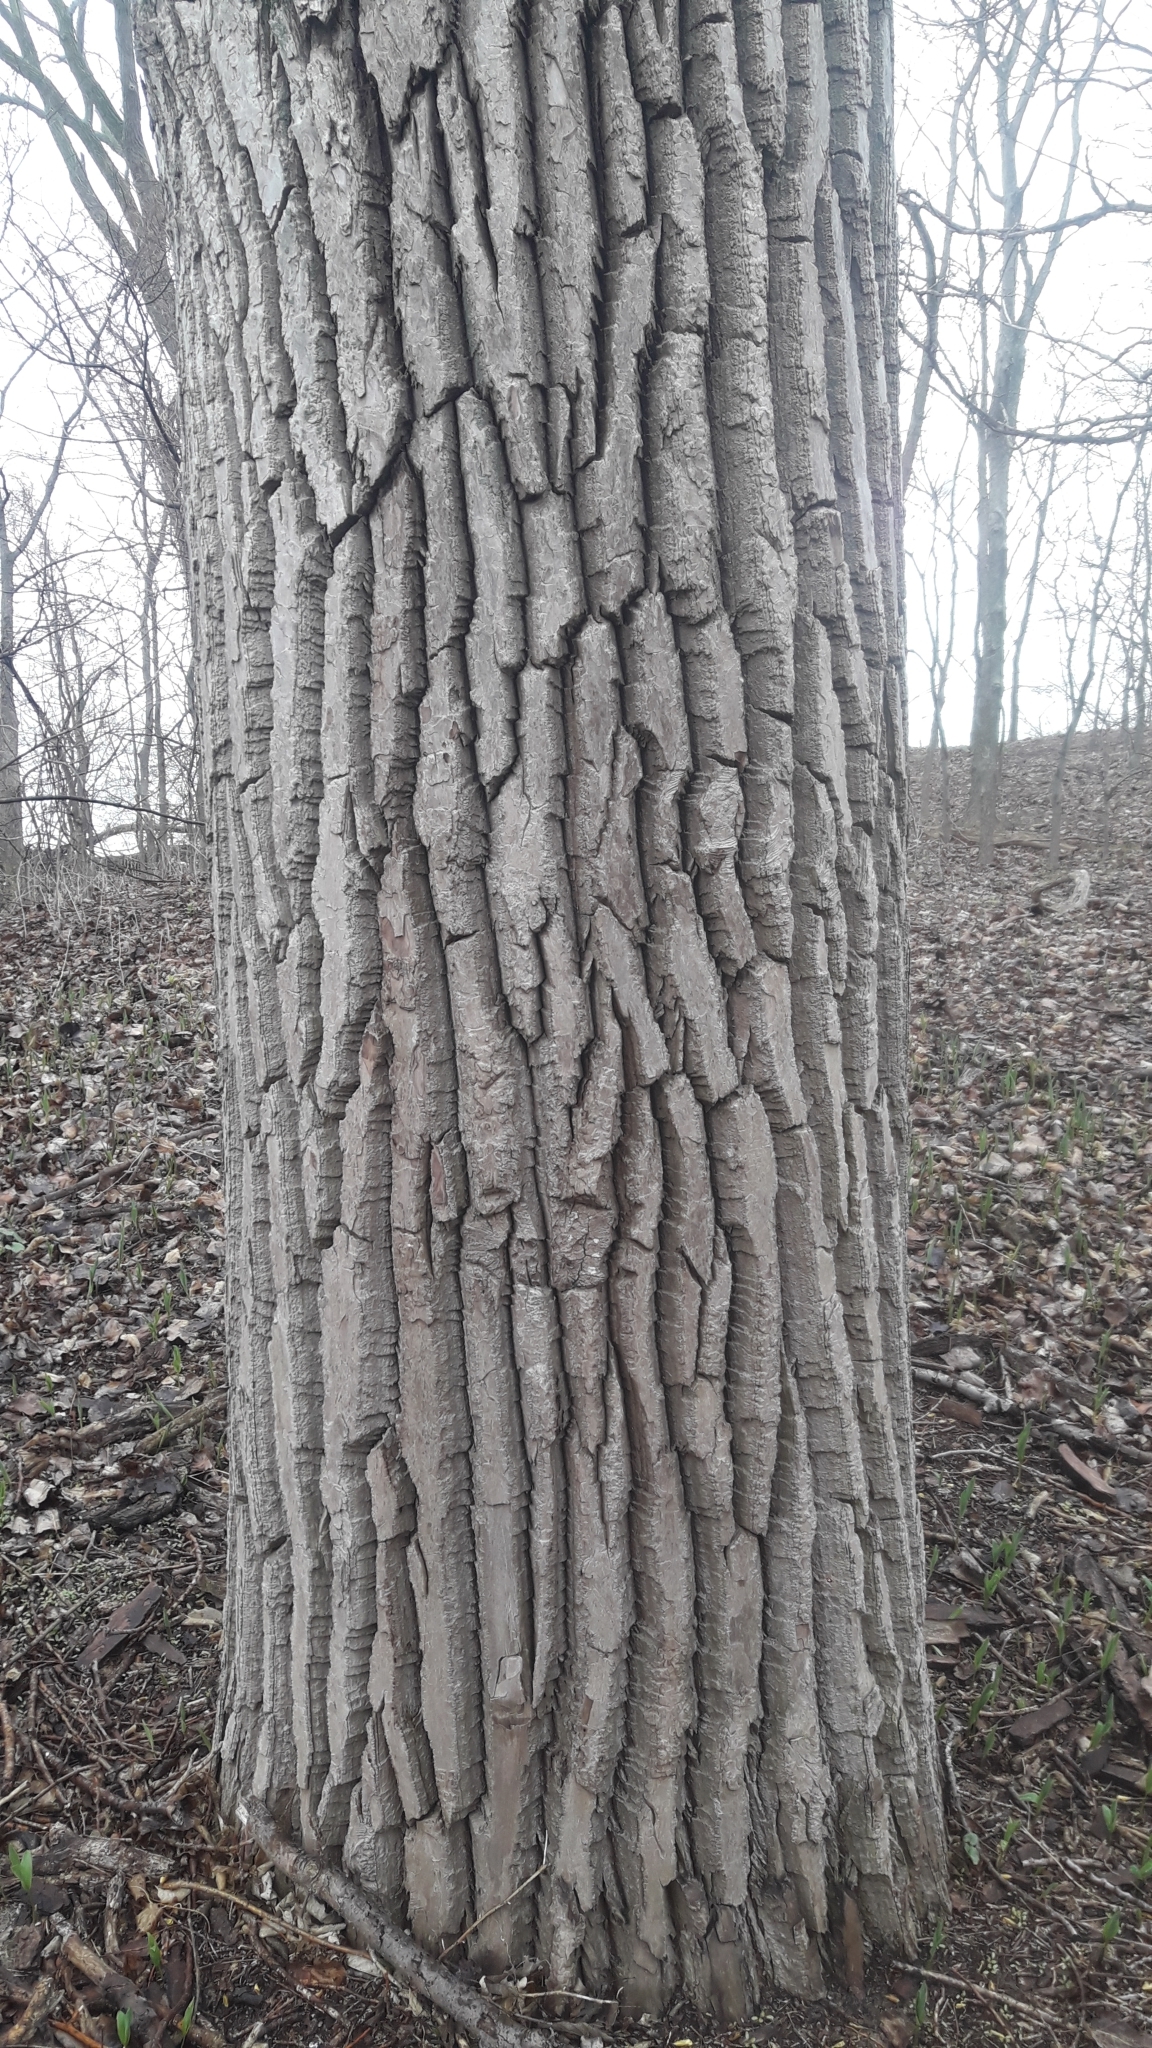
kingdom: Plantae
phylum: Tracheophyta
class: Magnoliopsida
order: Malpighiales
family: Salicaceae
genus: Populus
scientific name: Populus deltoides
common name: Eastern cottonwood
